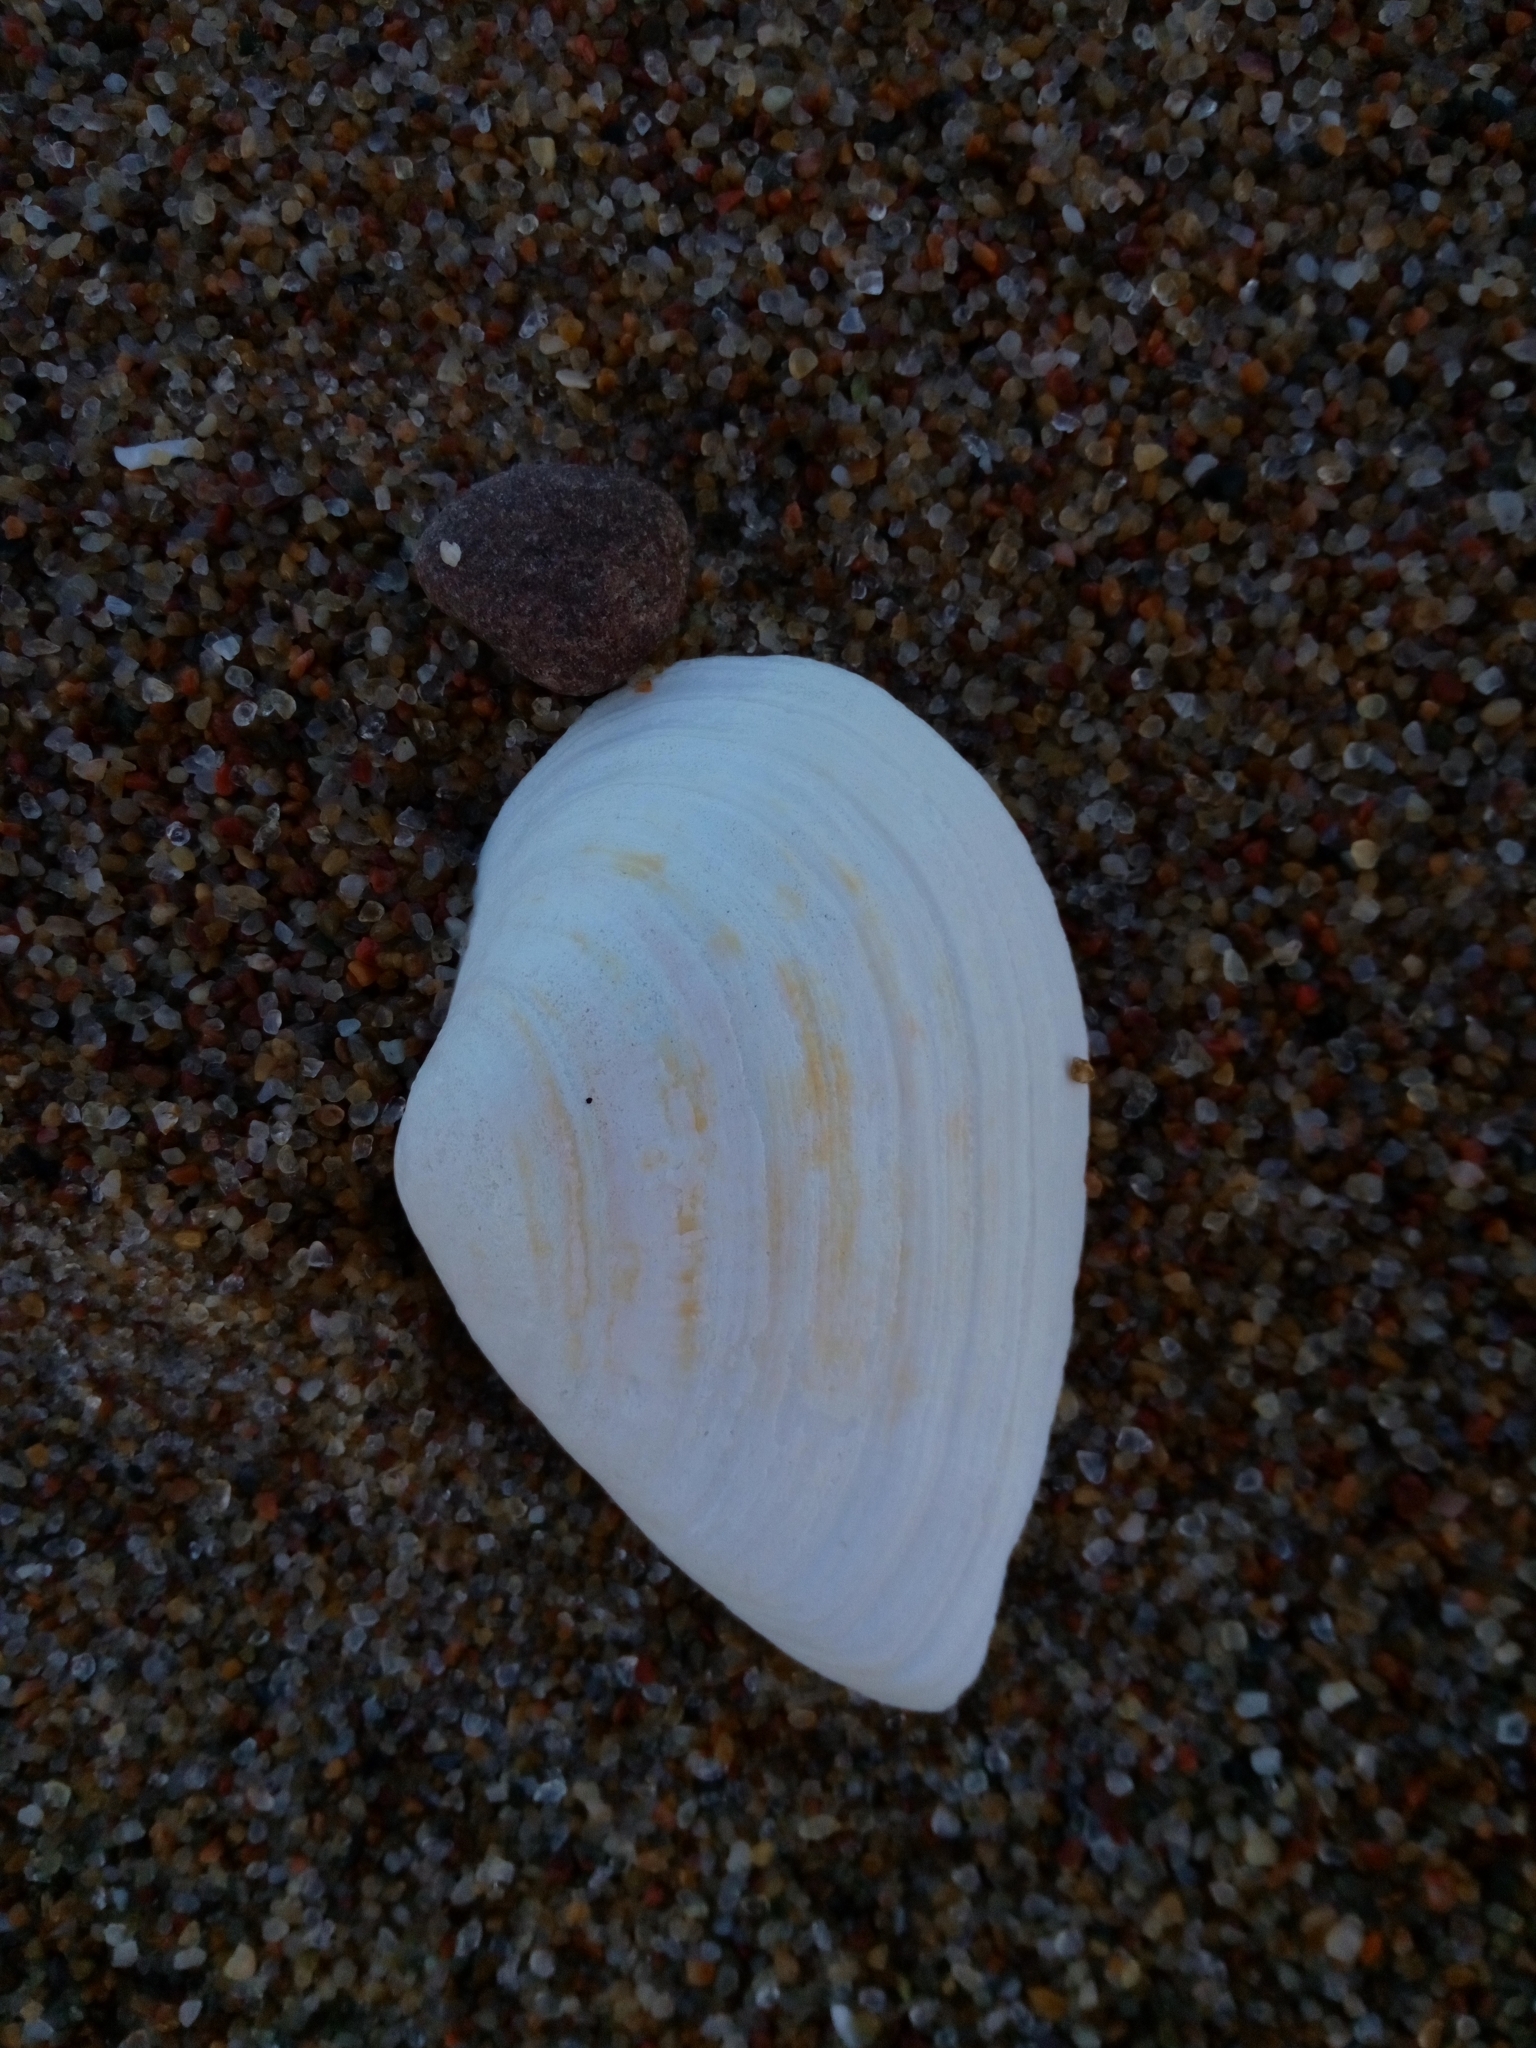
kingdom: Animalia
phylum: Mollusca
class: Bivalvia
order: Myida
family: Myidae
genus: Mya
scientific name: Mya arenaria
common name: Soft-shelled clam
